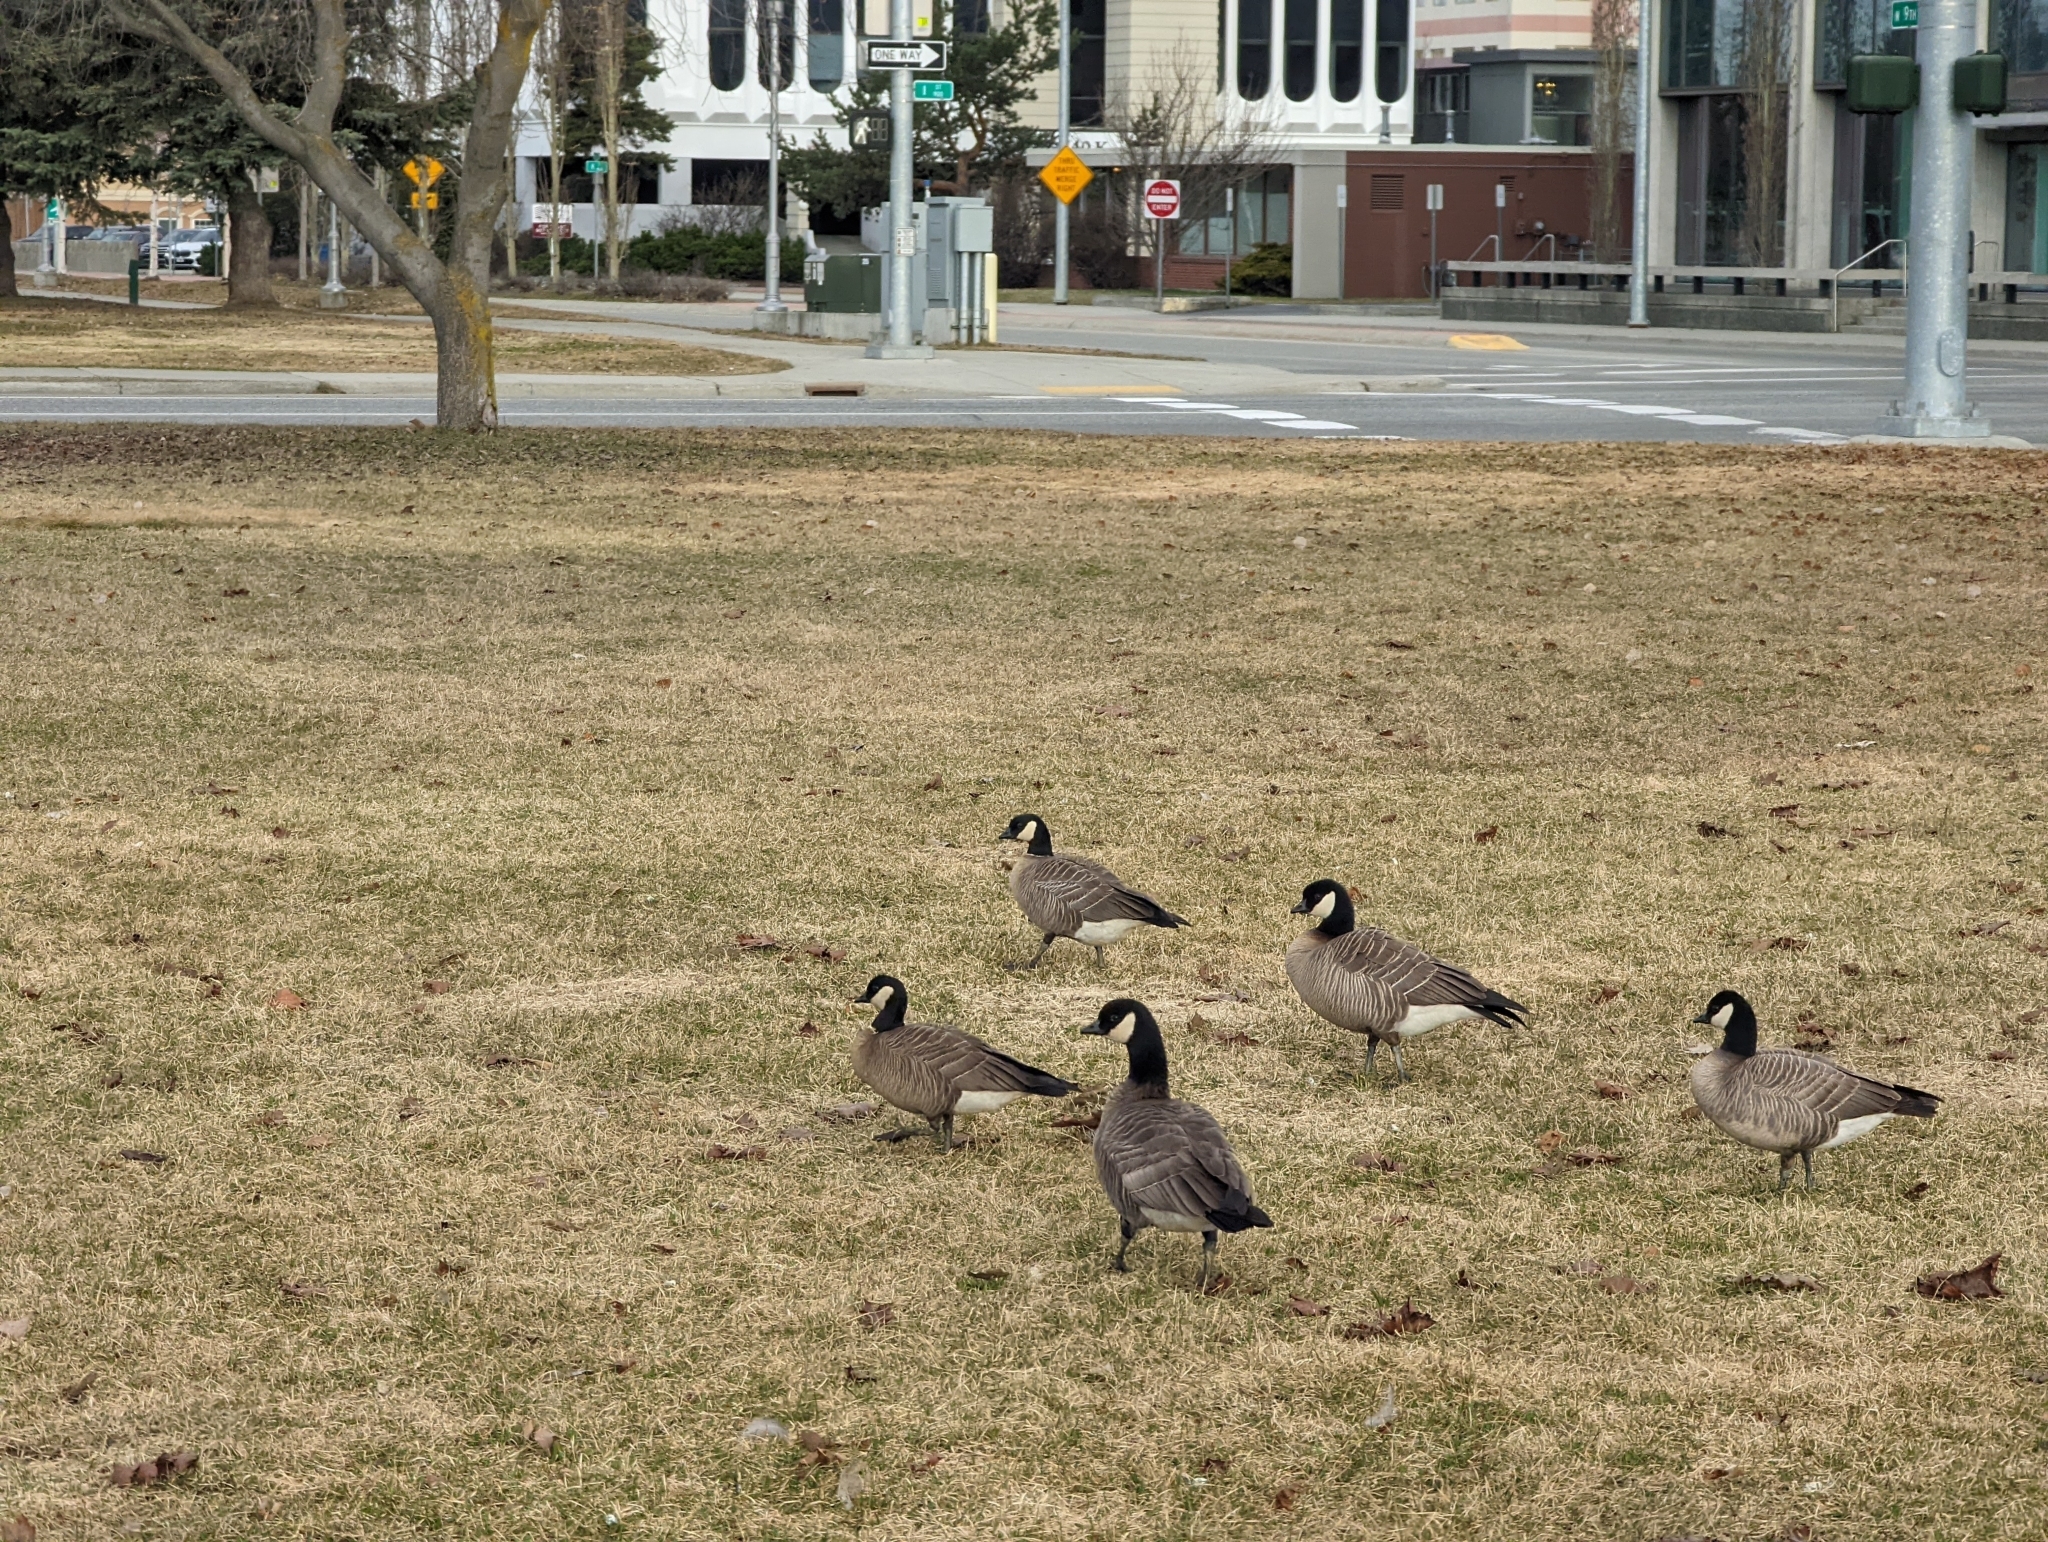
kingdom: Animalia
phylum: Chordata
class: Aves
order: Anseriformes
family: Anatidae
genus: Branta
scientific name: Branta hutchinsii
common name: Cackling goose
